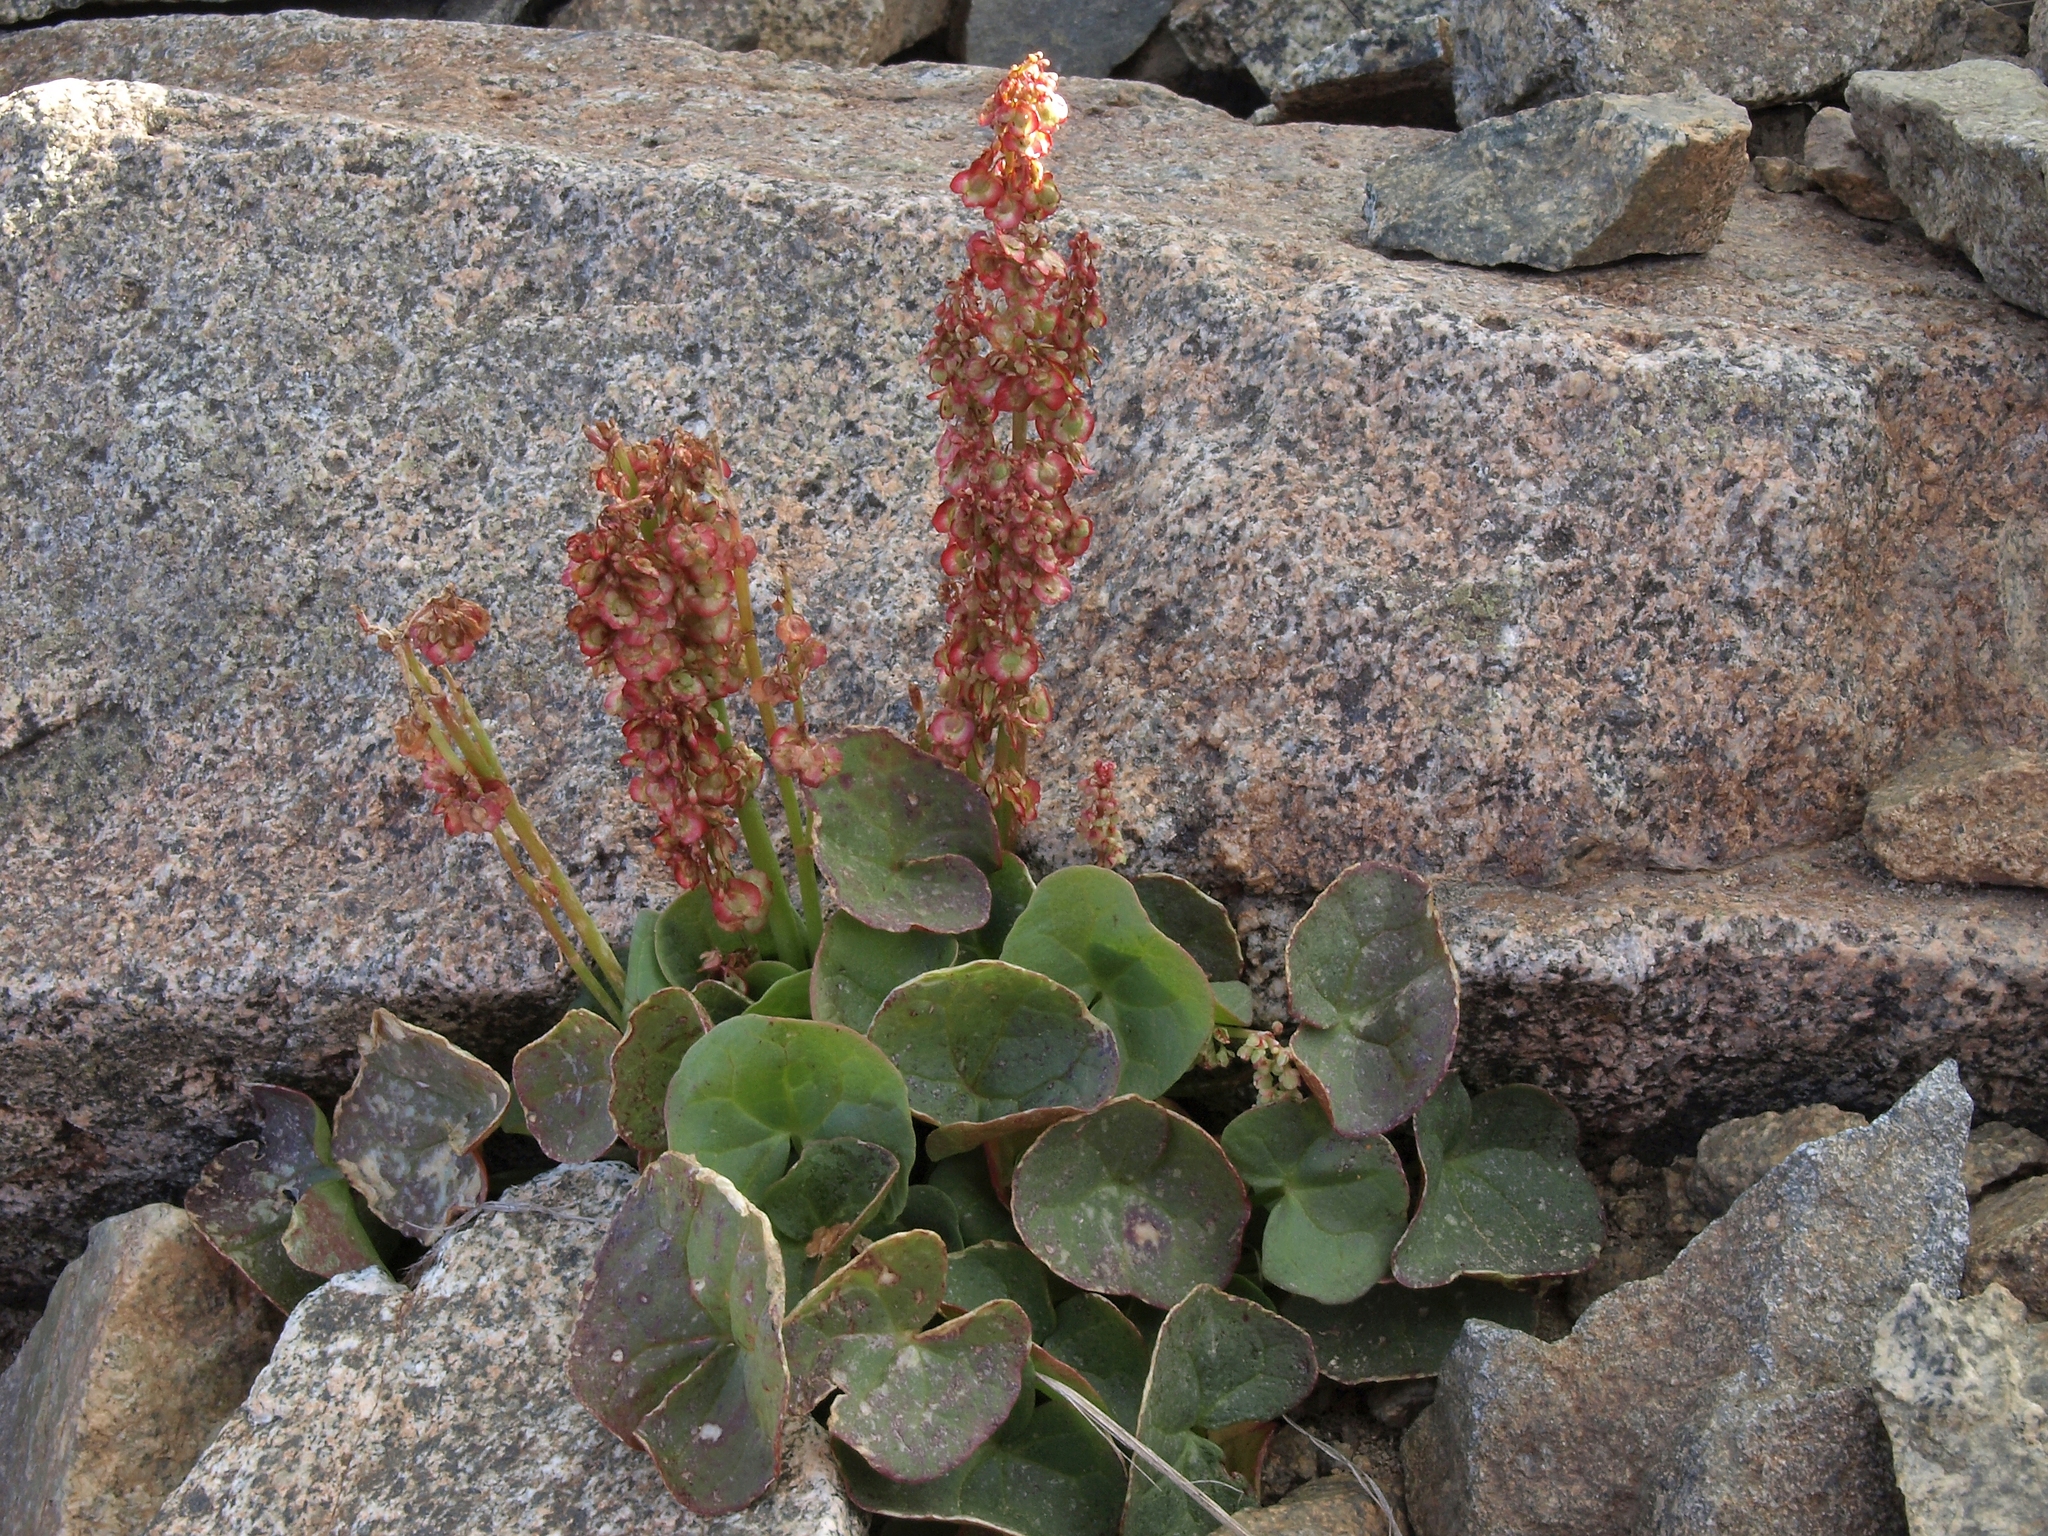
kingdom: Plantae
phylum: Tracheophyta
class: Magnoliopsida
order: Caryophyllales
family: Polygonaceae
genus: Oxyria
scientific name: Oxyria digyna
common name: Alpine mountain-sorrel
